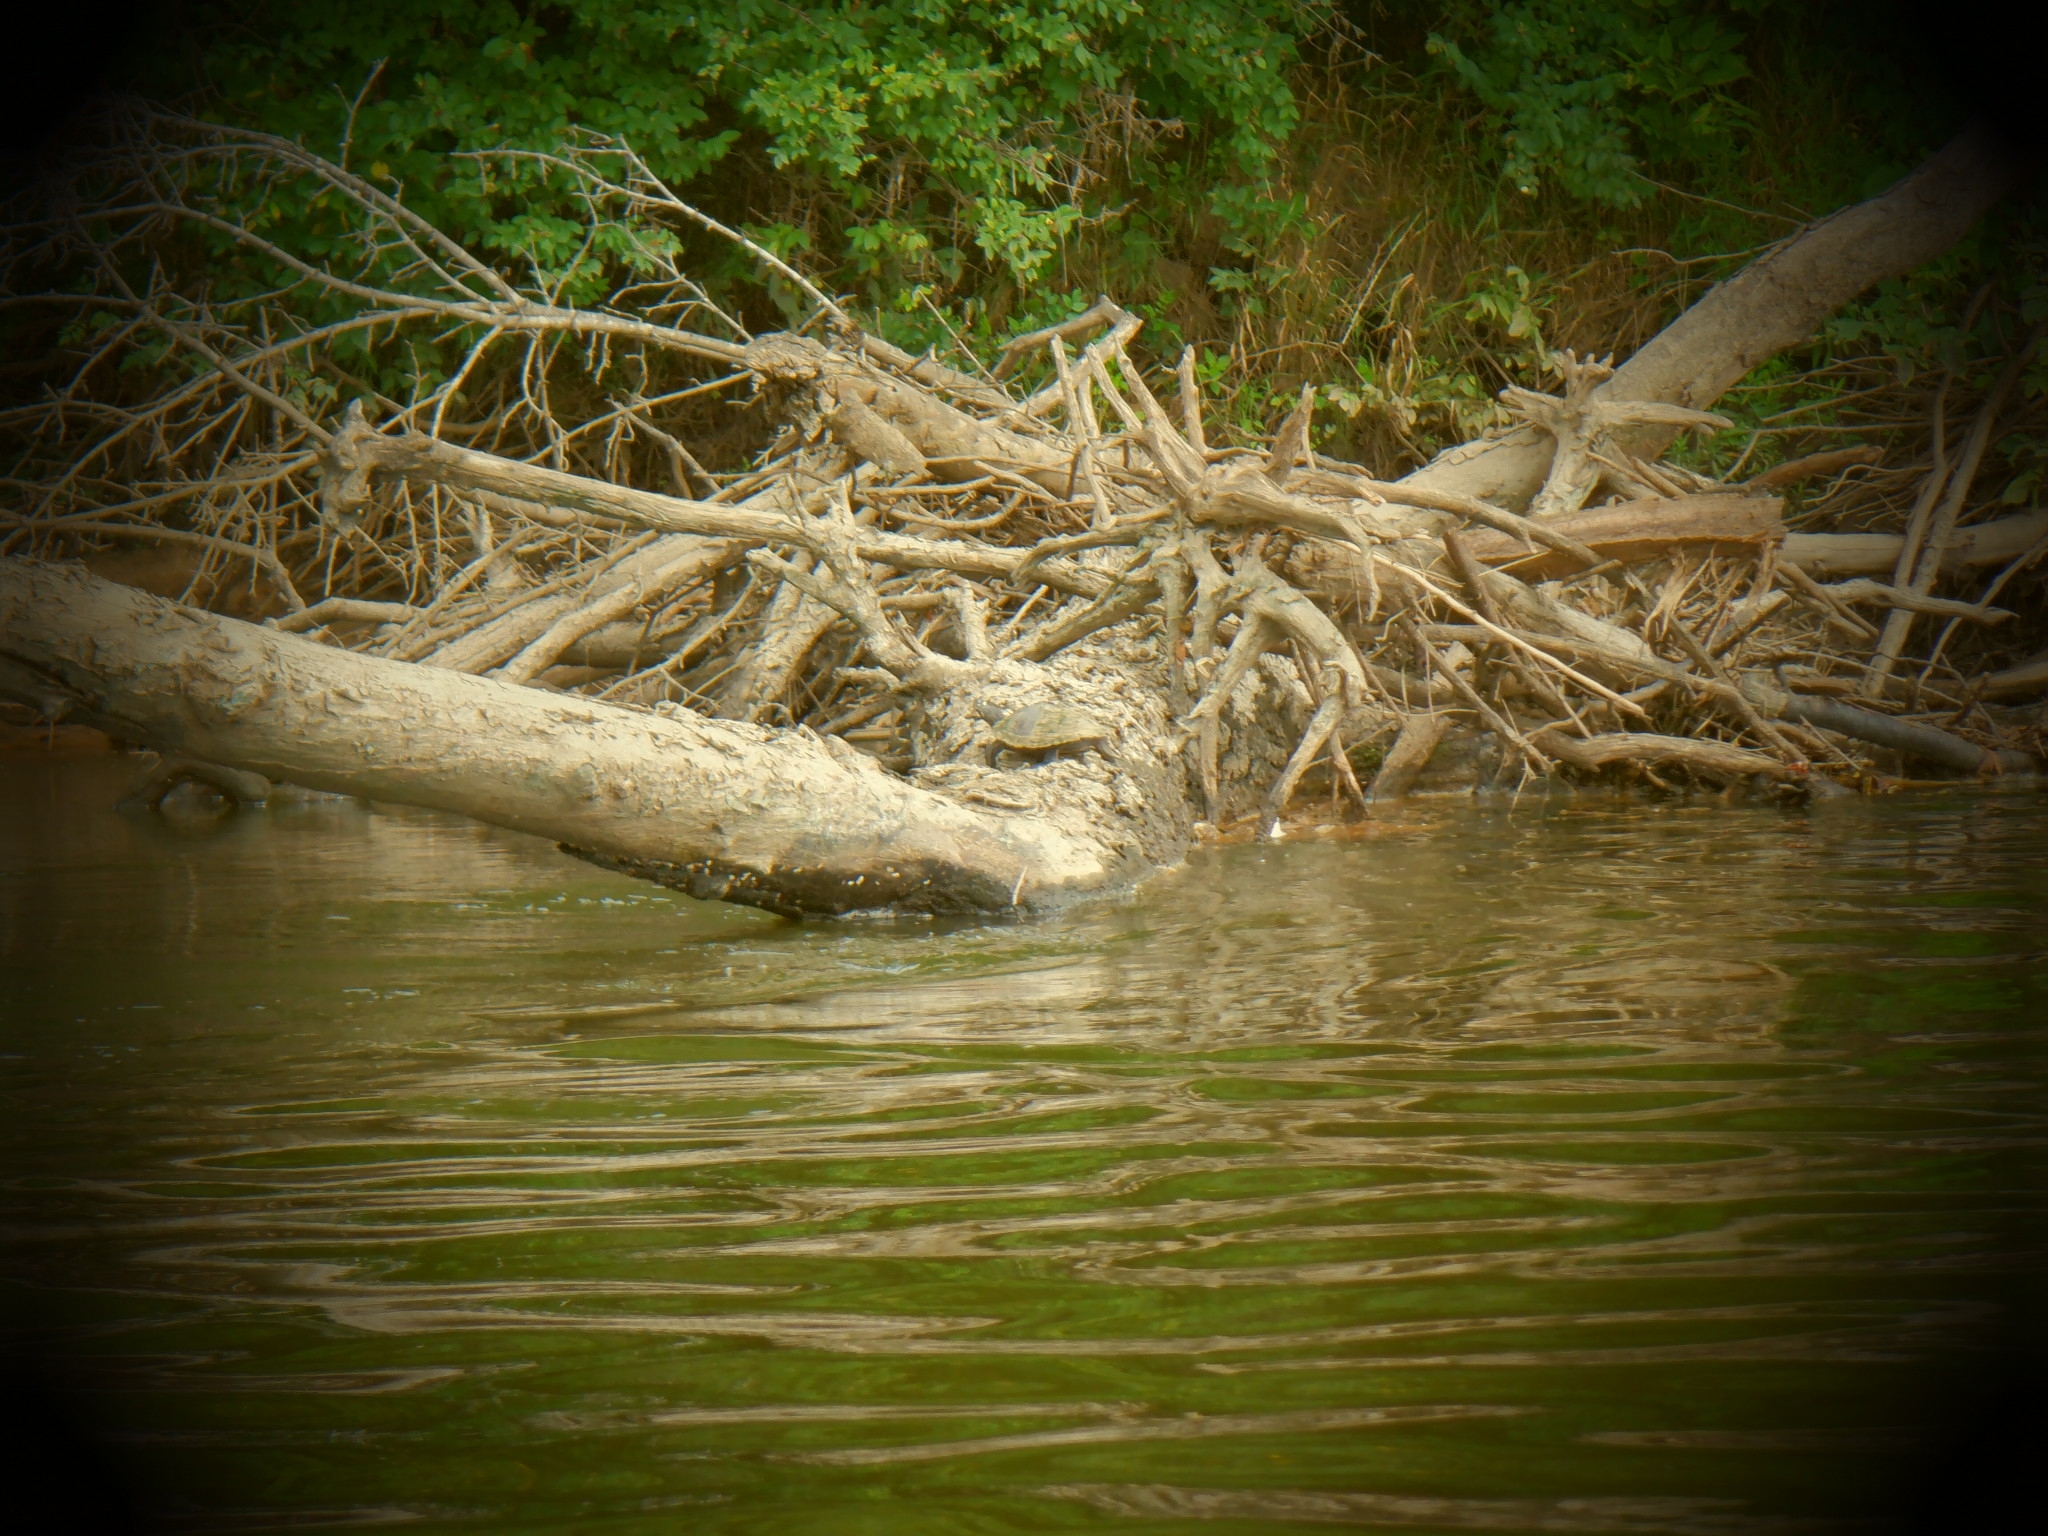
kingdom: Animalia
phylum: Chordata
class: Testudines
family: Emydidae
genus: Graptemys
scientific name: Graptemys ouachitensis
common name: Ouachita map turtle
